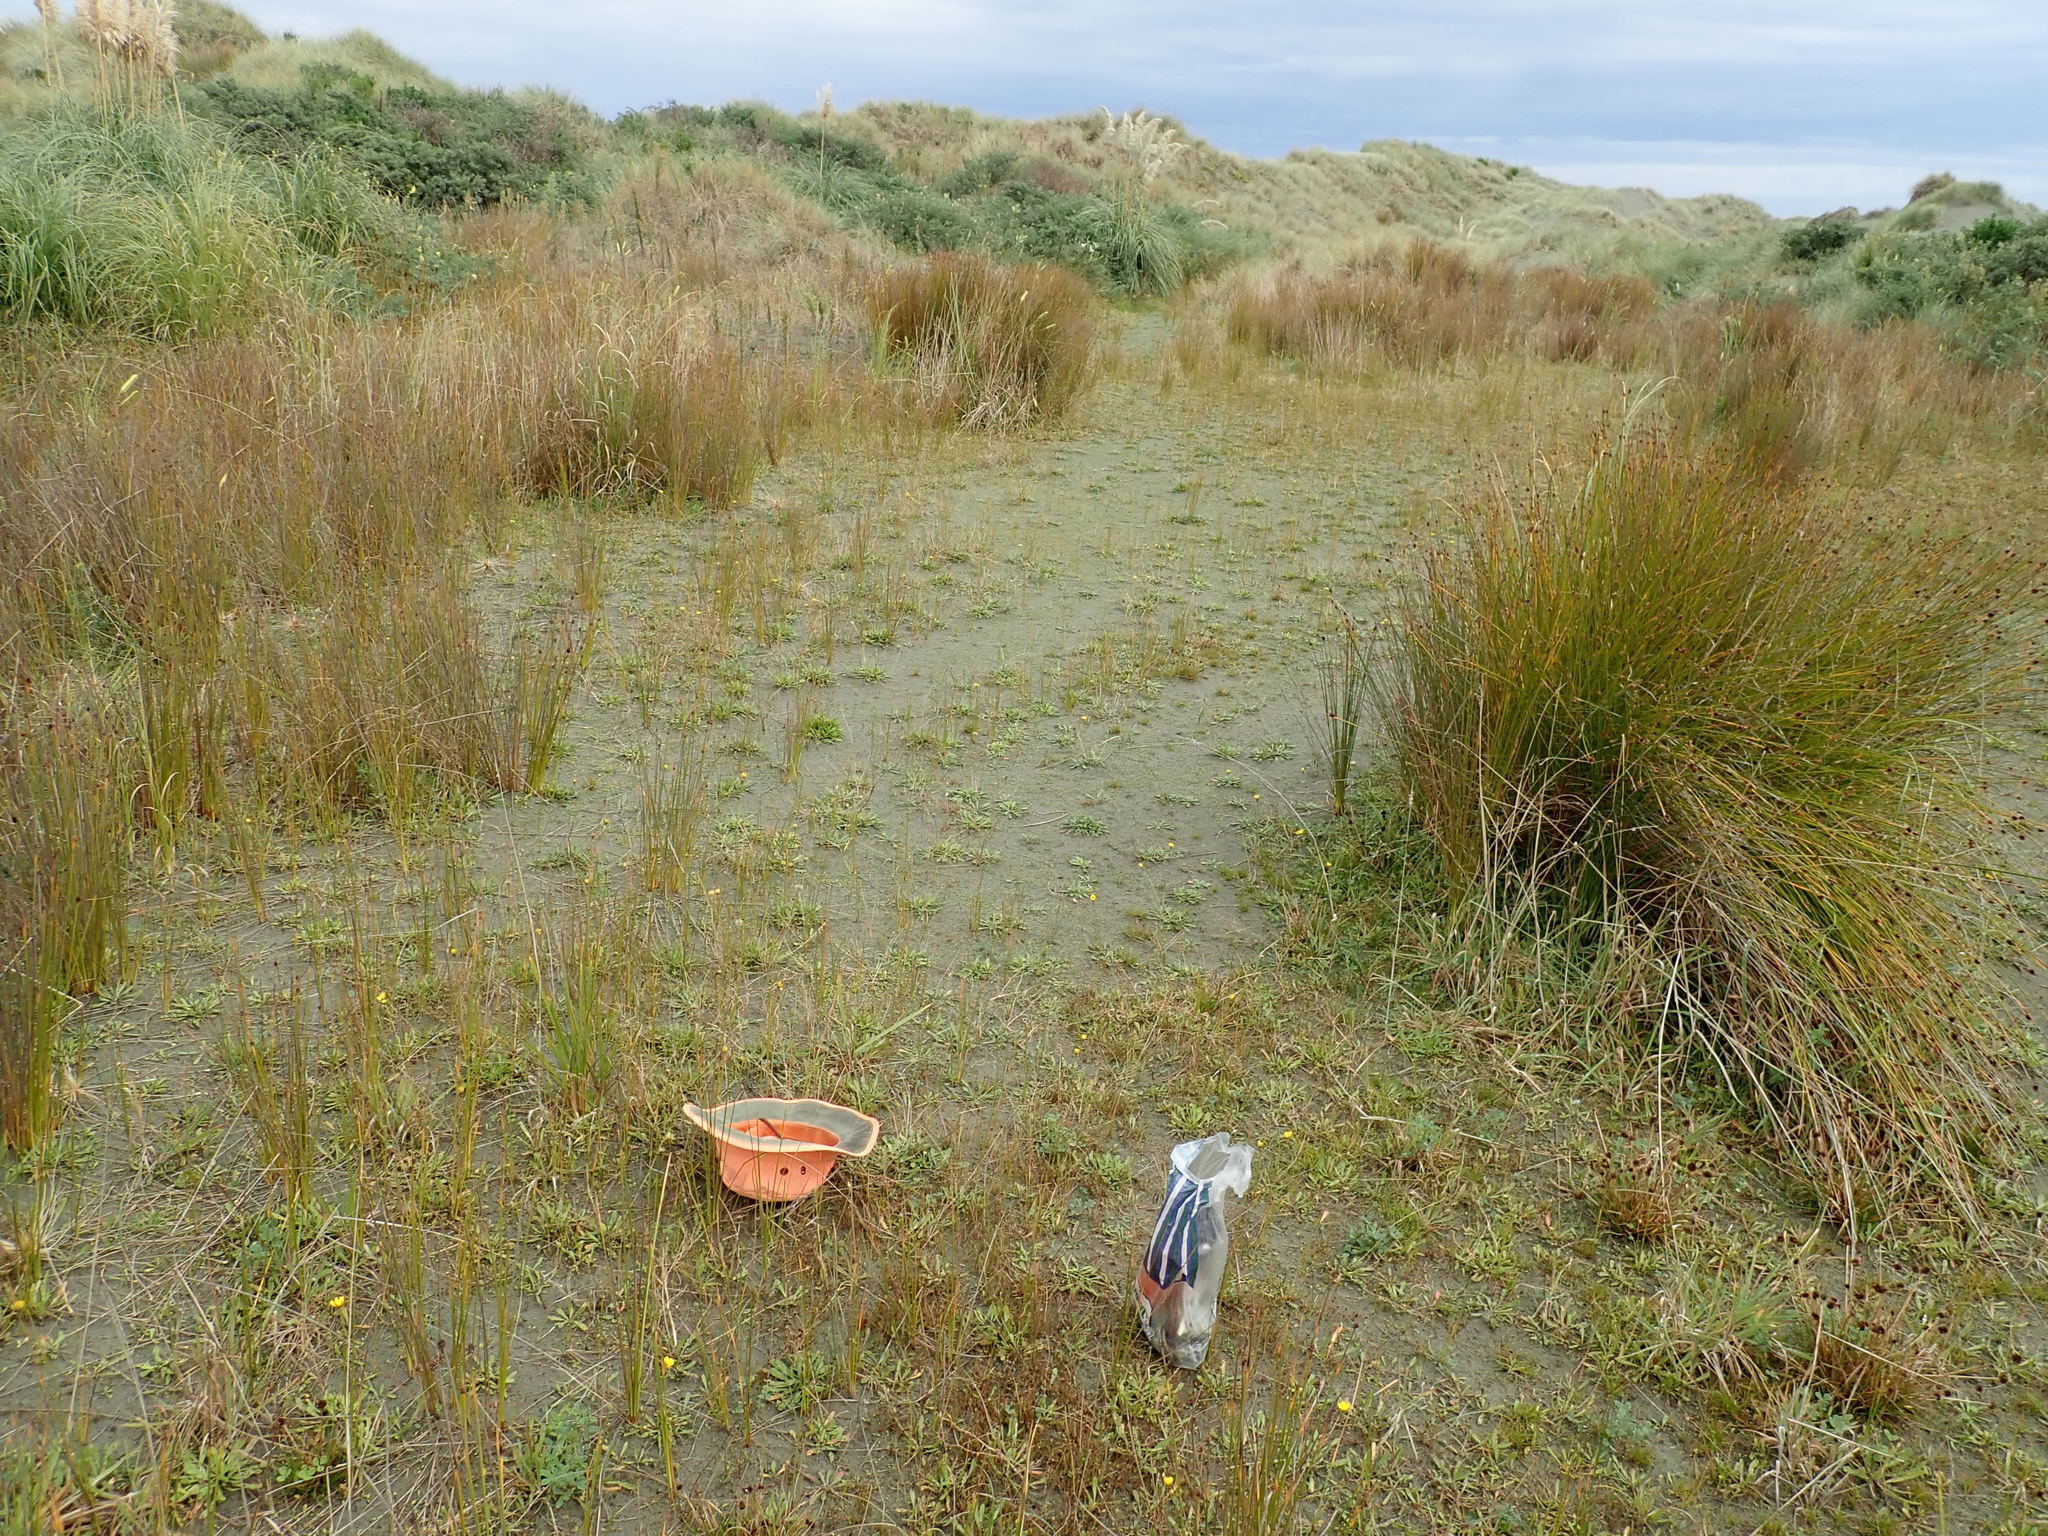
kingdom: Plantae
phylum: Tracheophyta
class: Liliopsida
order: Poales
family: Juncaceae
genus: Juncus
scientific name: Juncus bufonius
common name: Toad rush
